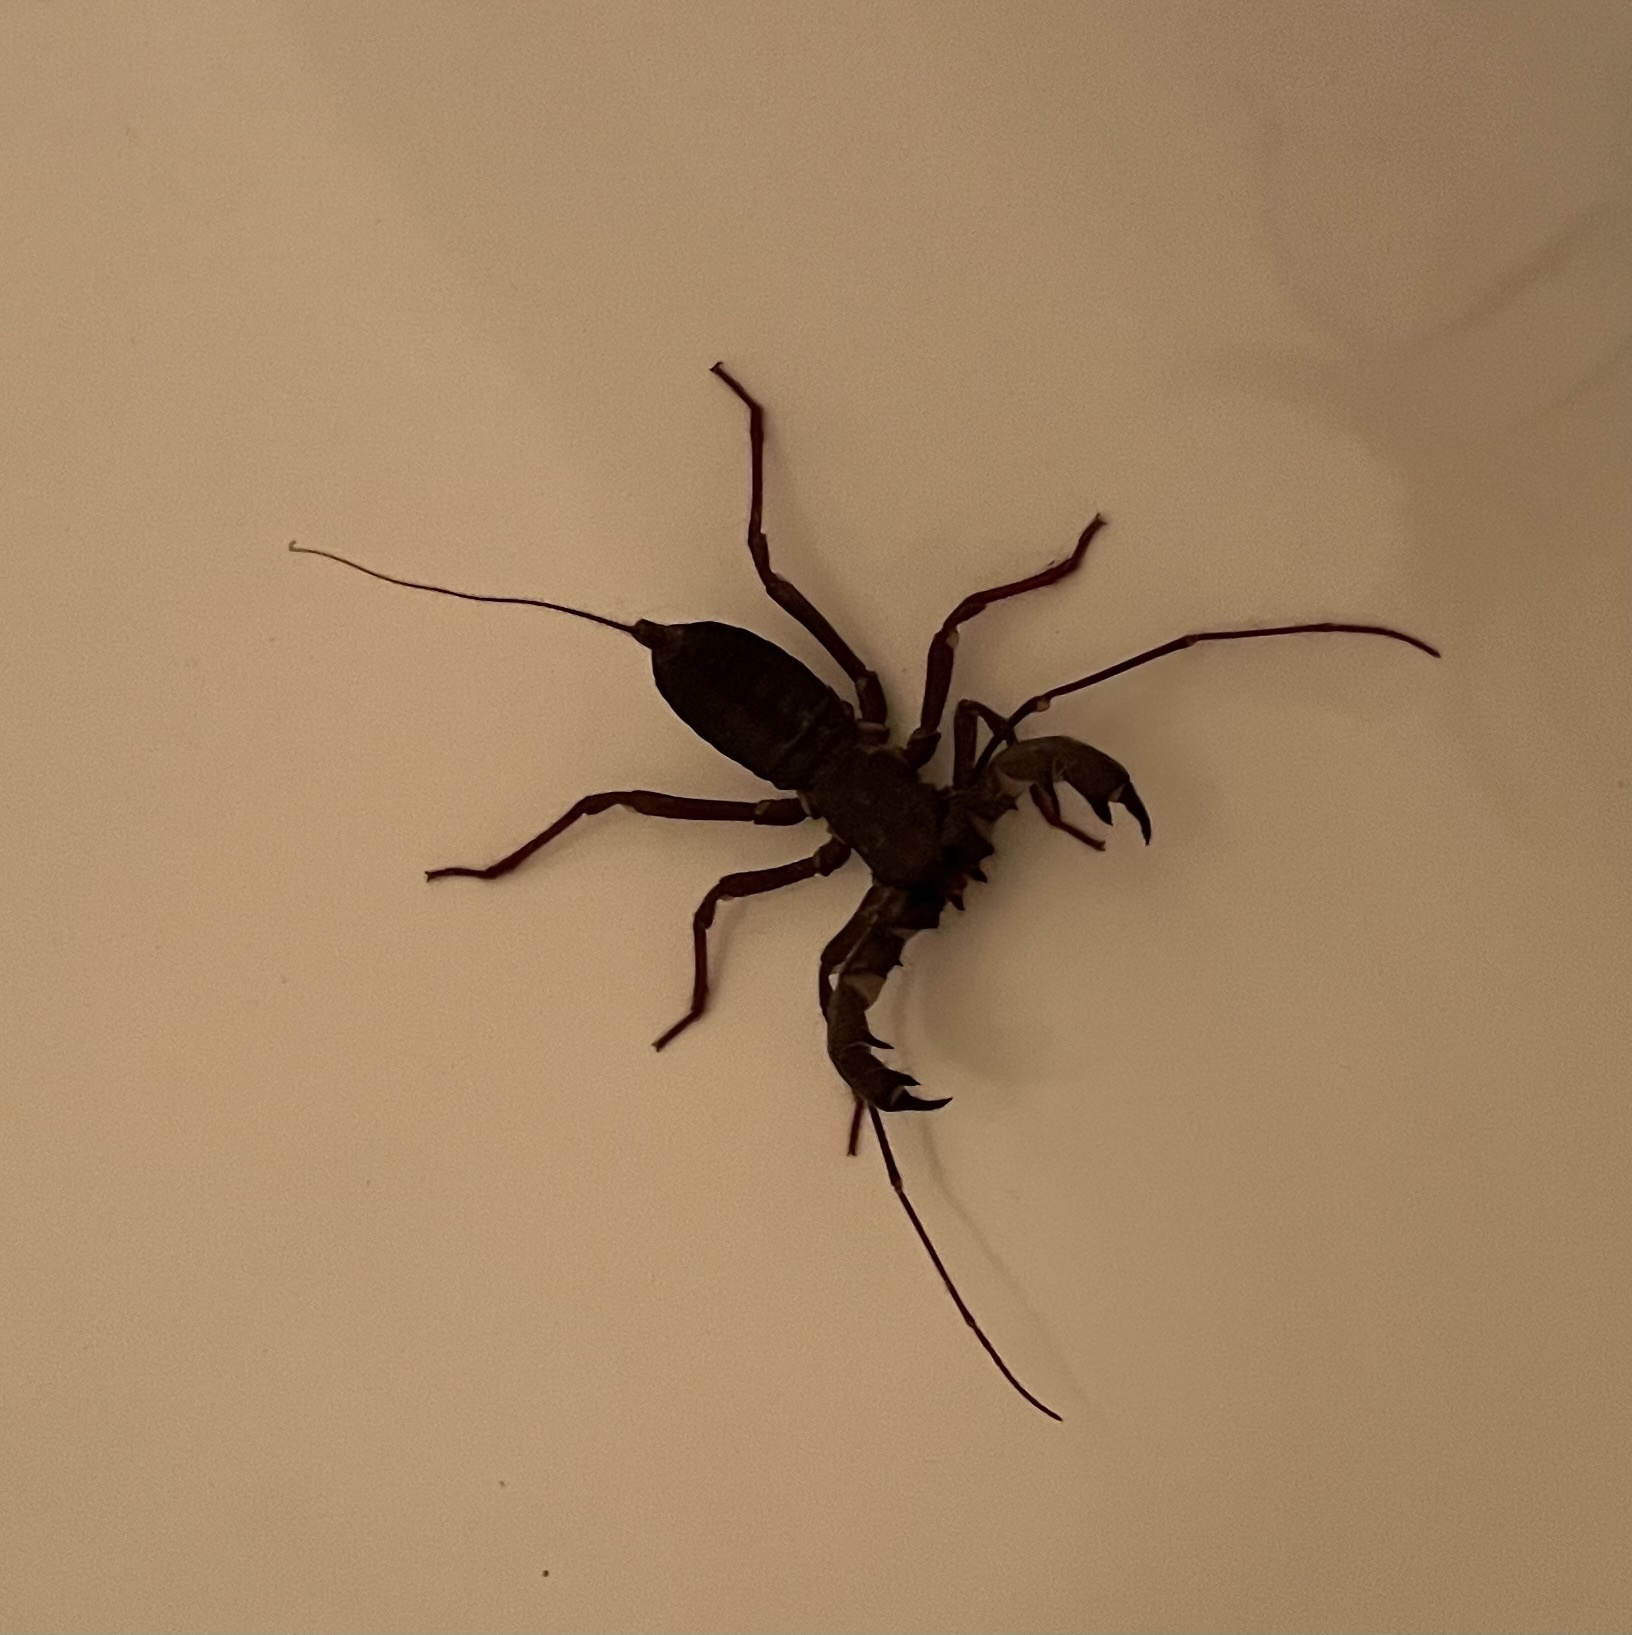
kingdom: Animalia
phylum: Arthropoda
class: Arachnida
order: Uropygi
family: Thelyphonidae
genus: Mastigoproctus
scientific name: Mastigoproctus giganteus
